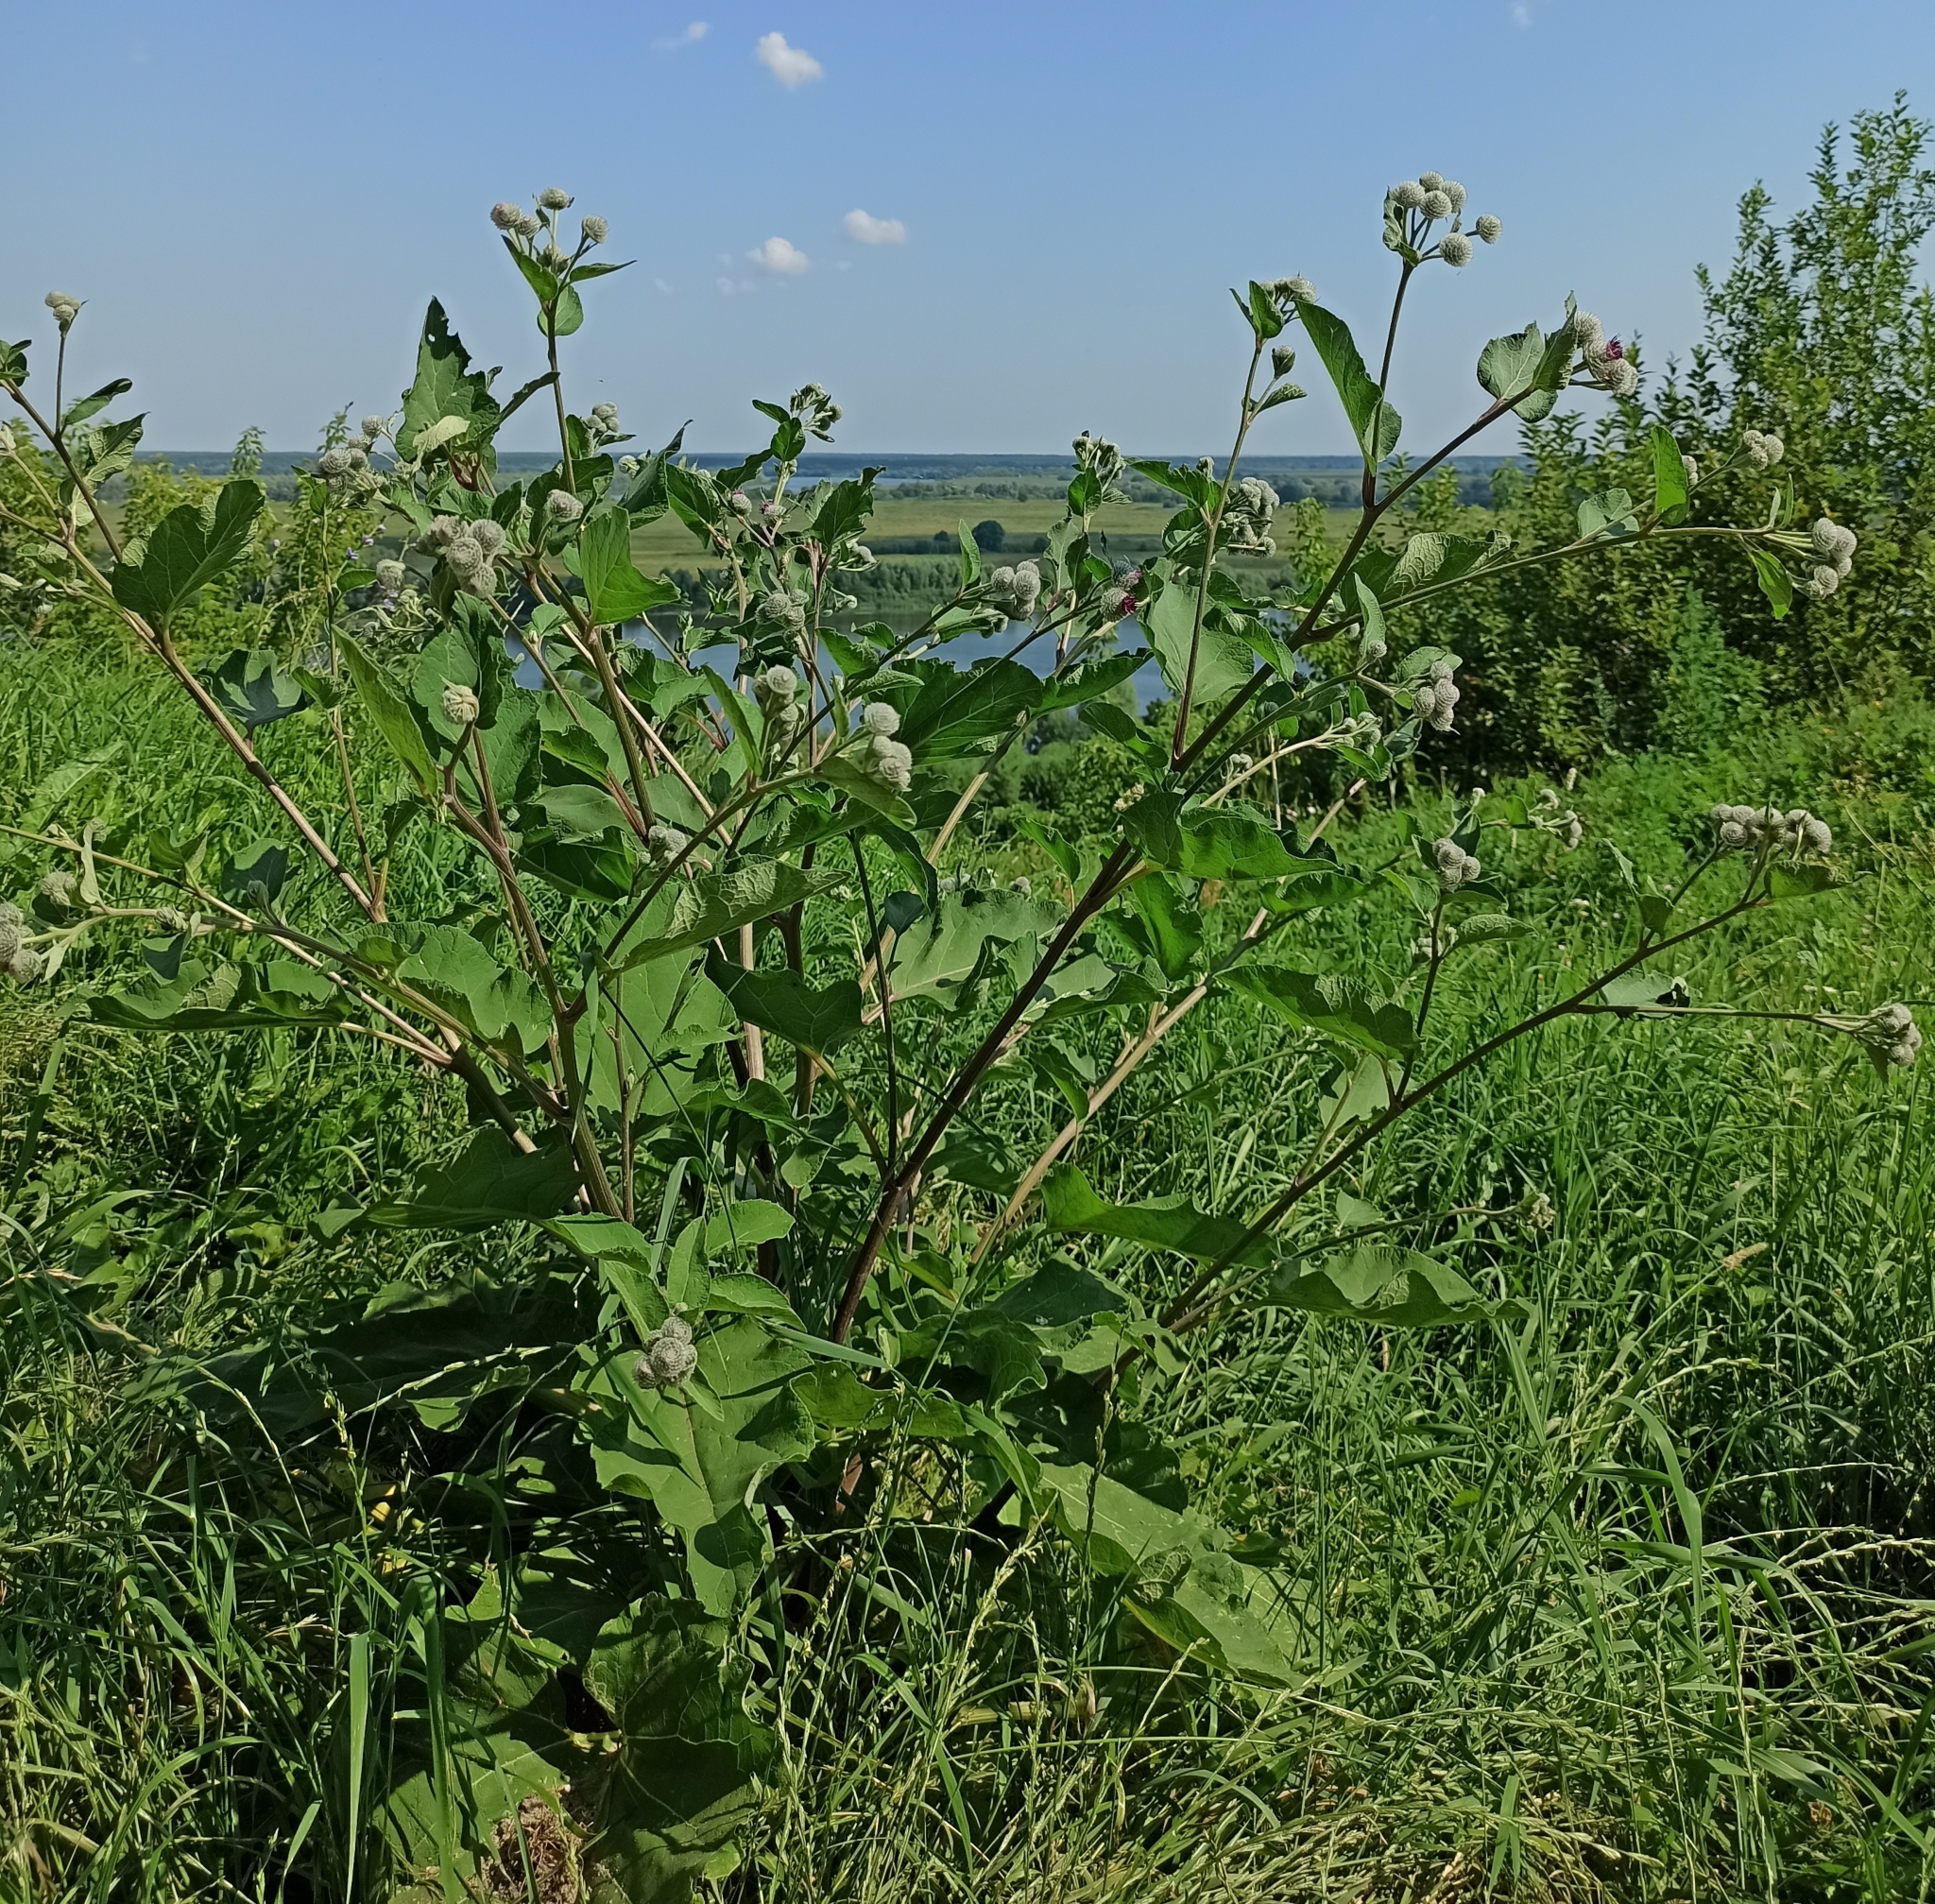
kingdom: Plantae
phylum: Tracheophyta
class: Magnoliopsida
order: Asterales
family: Asteraceae
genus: Arctium
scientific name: Arctium tomentosum
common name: Woolly burdock
